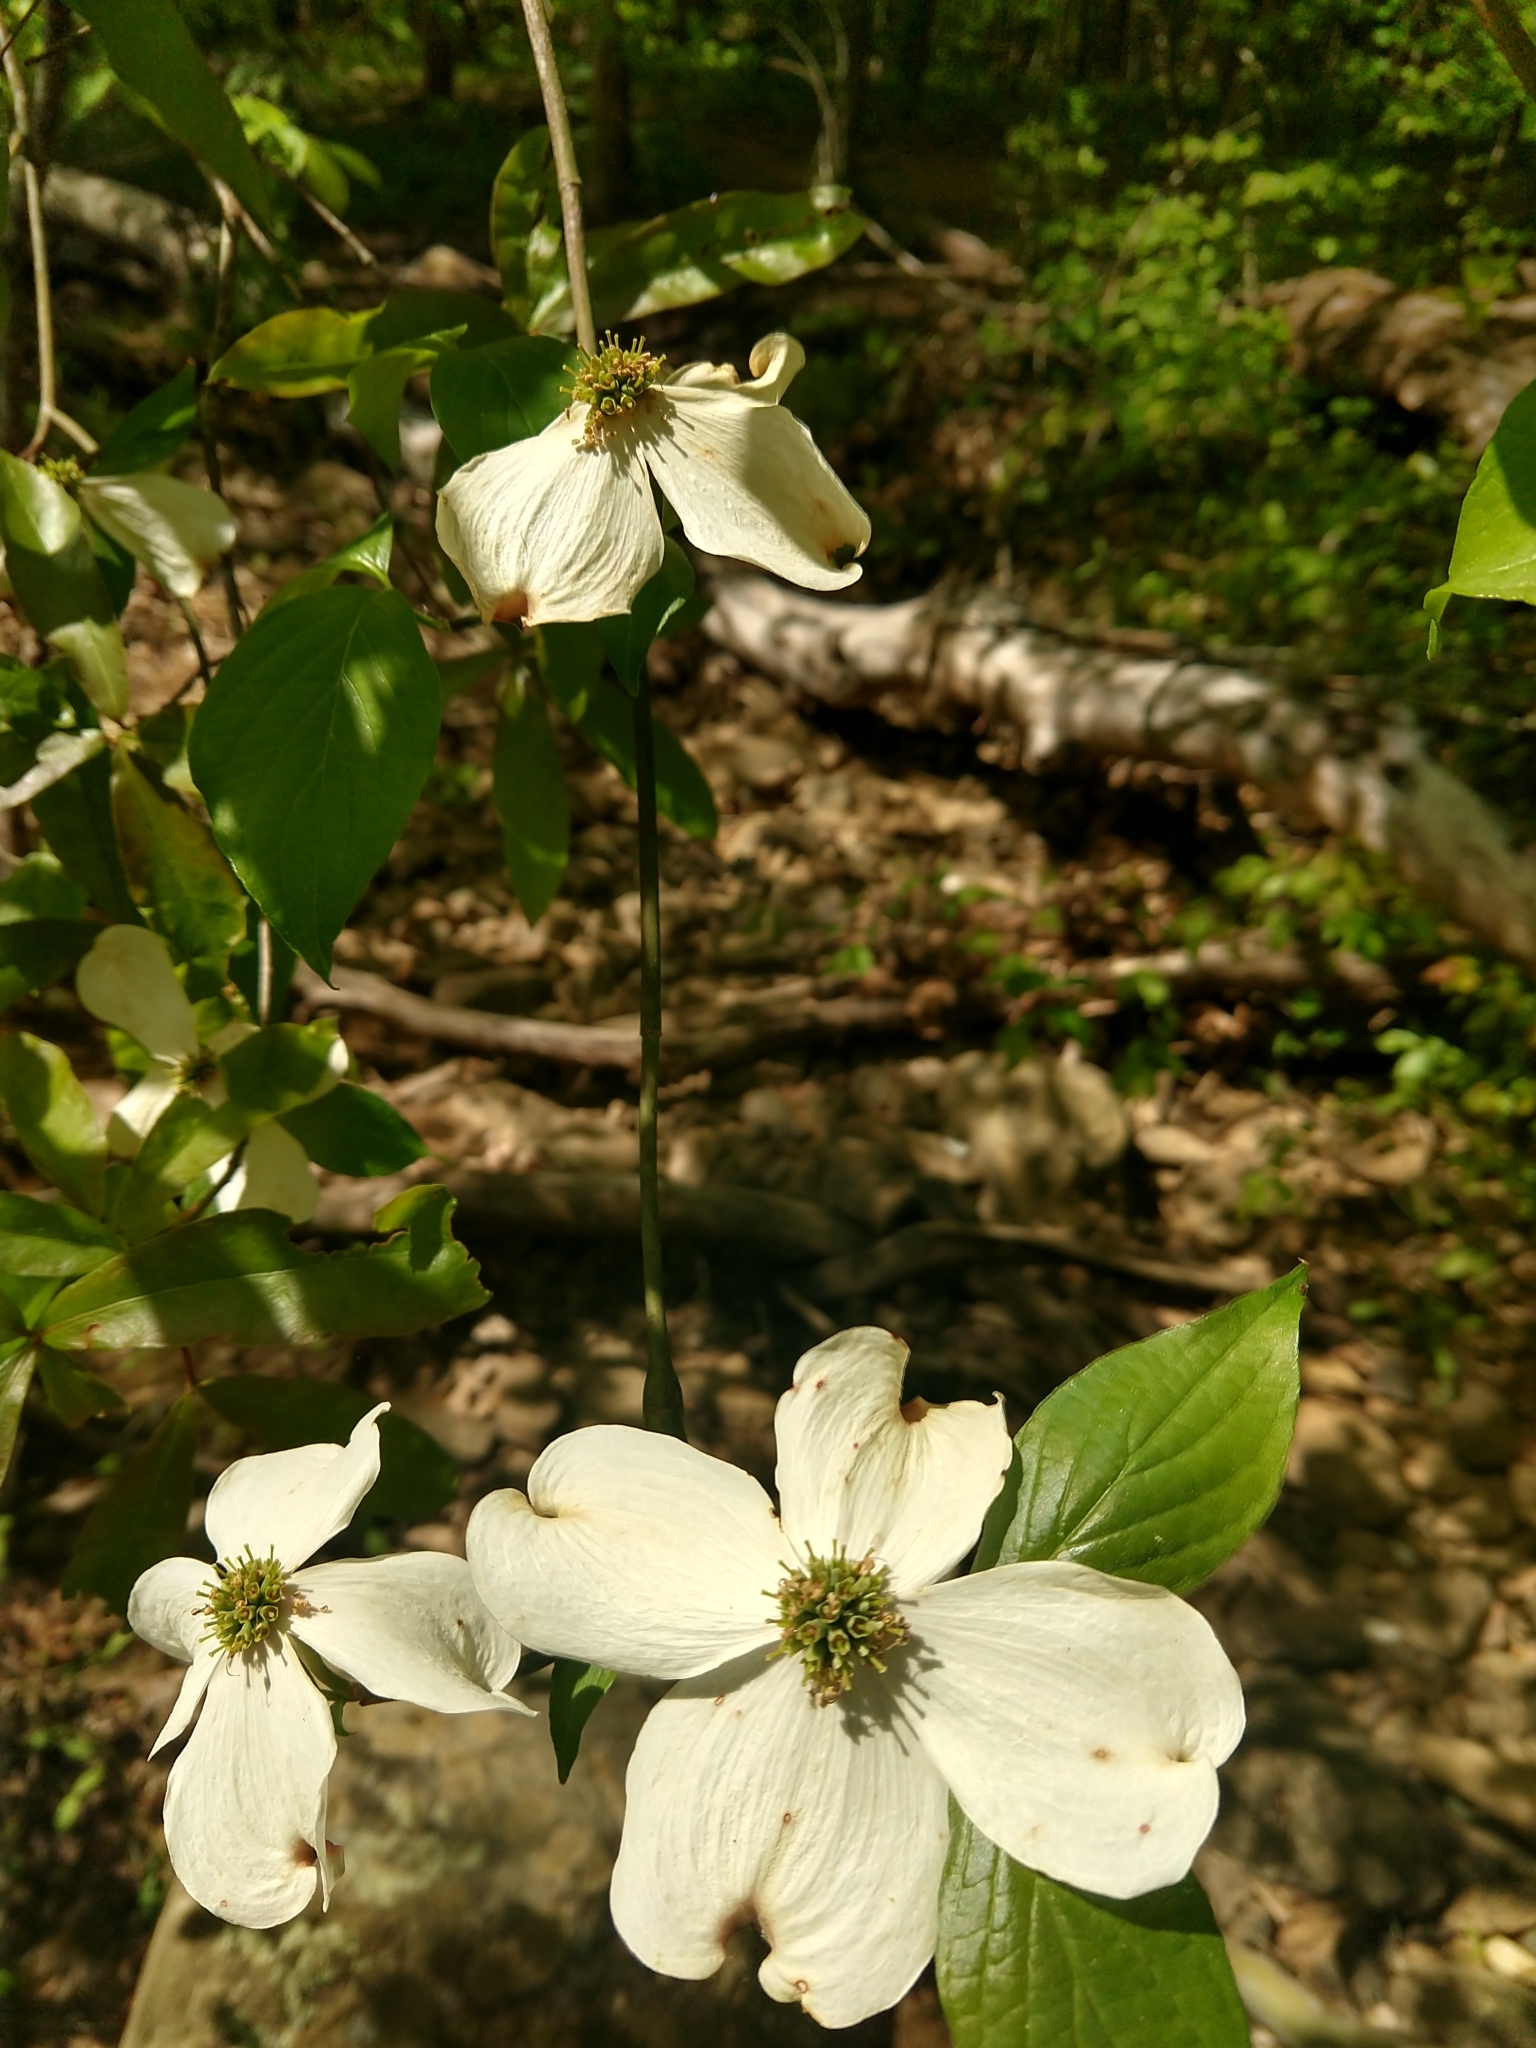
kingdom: Plantae
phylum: Tracheophyta
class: Magnoliopsida
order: Cornales
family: Cornaceae
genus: Cornus
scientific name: Cornus florida
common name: Flowering dogwood
